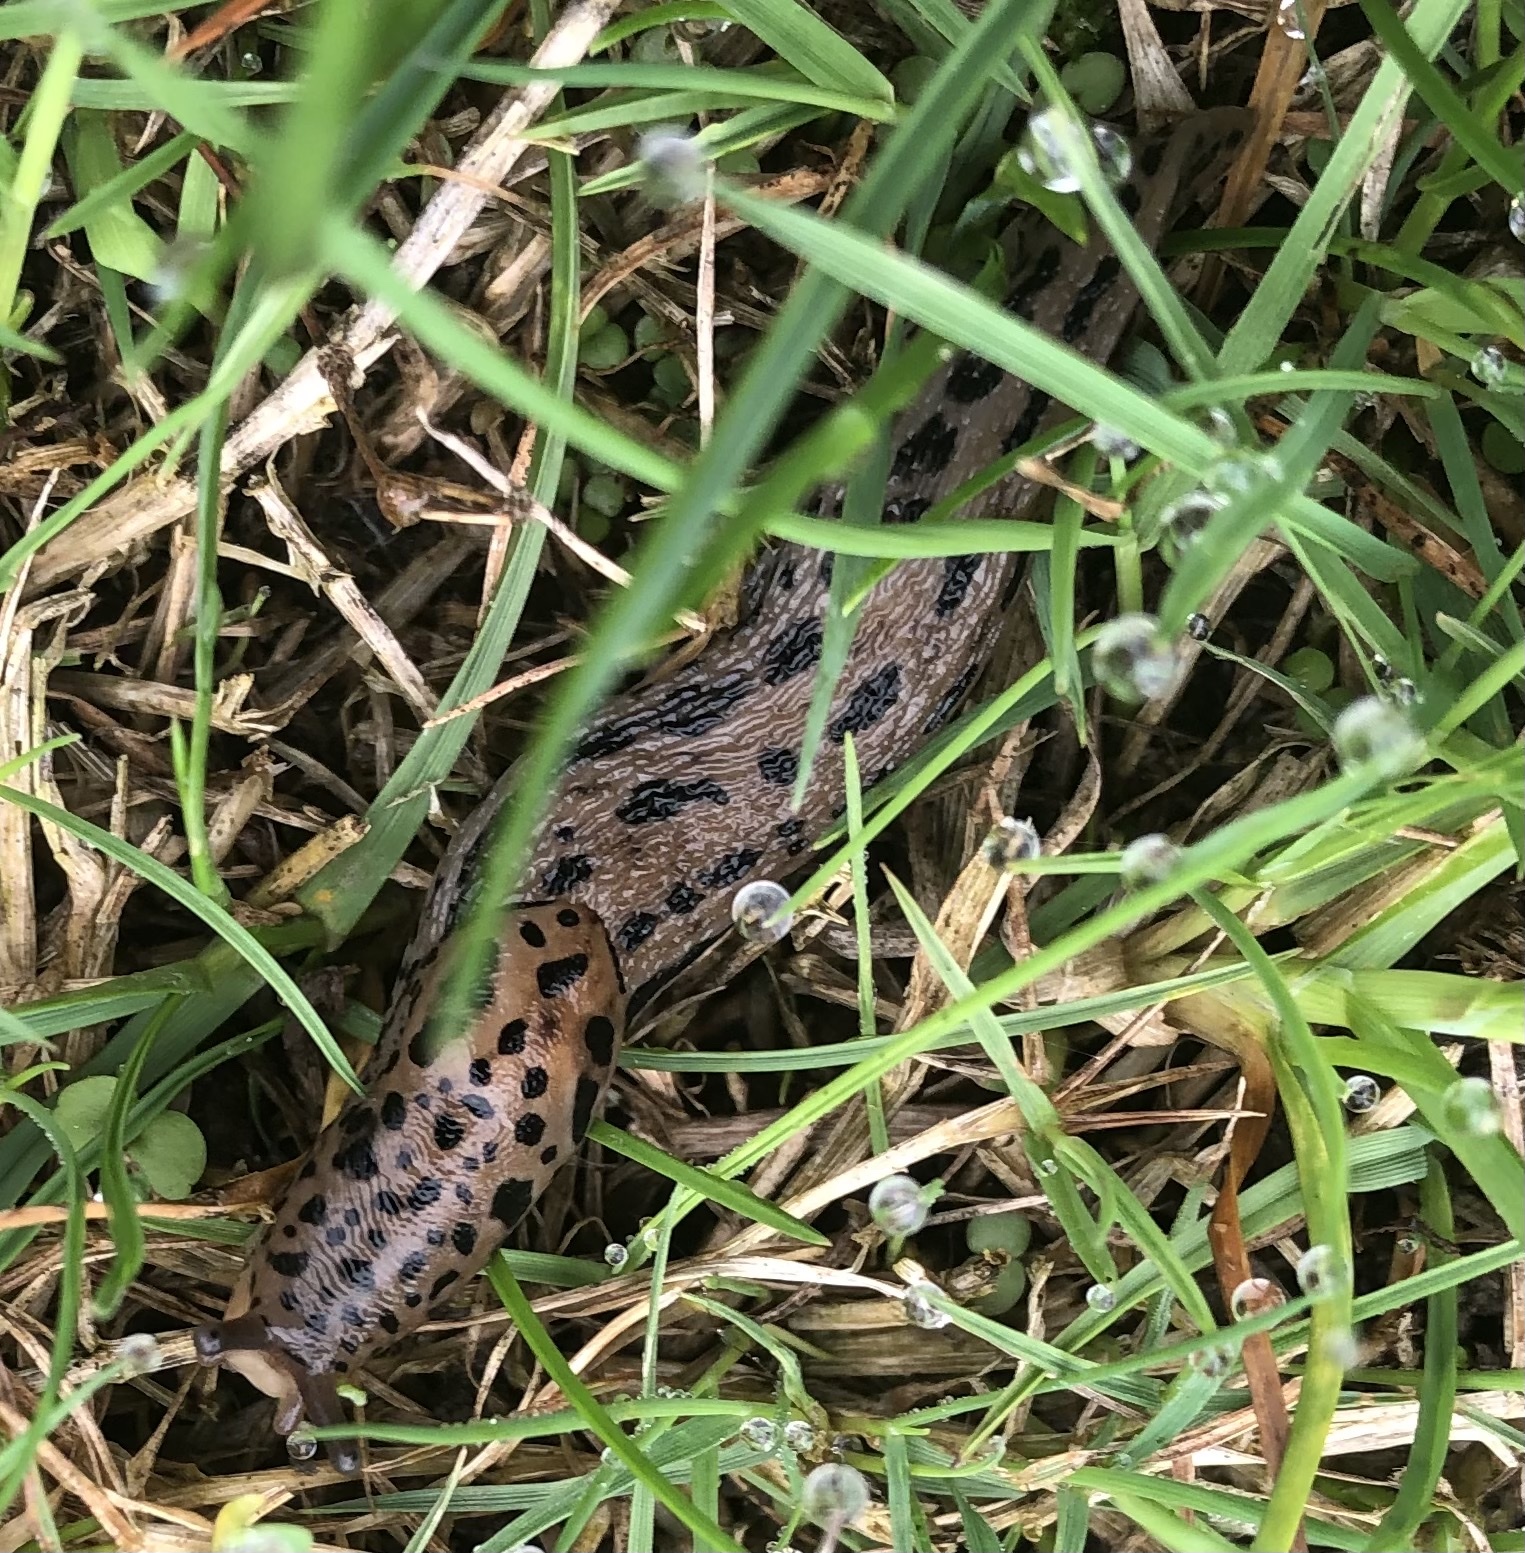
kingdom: Animalia
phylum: Mollusca
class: Gastropoda
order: Stylommatophora
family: Limacidae
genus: Limax
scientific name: Limax maximus
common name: Great grey slug
